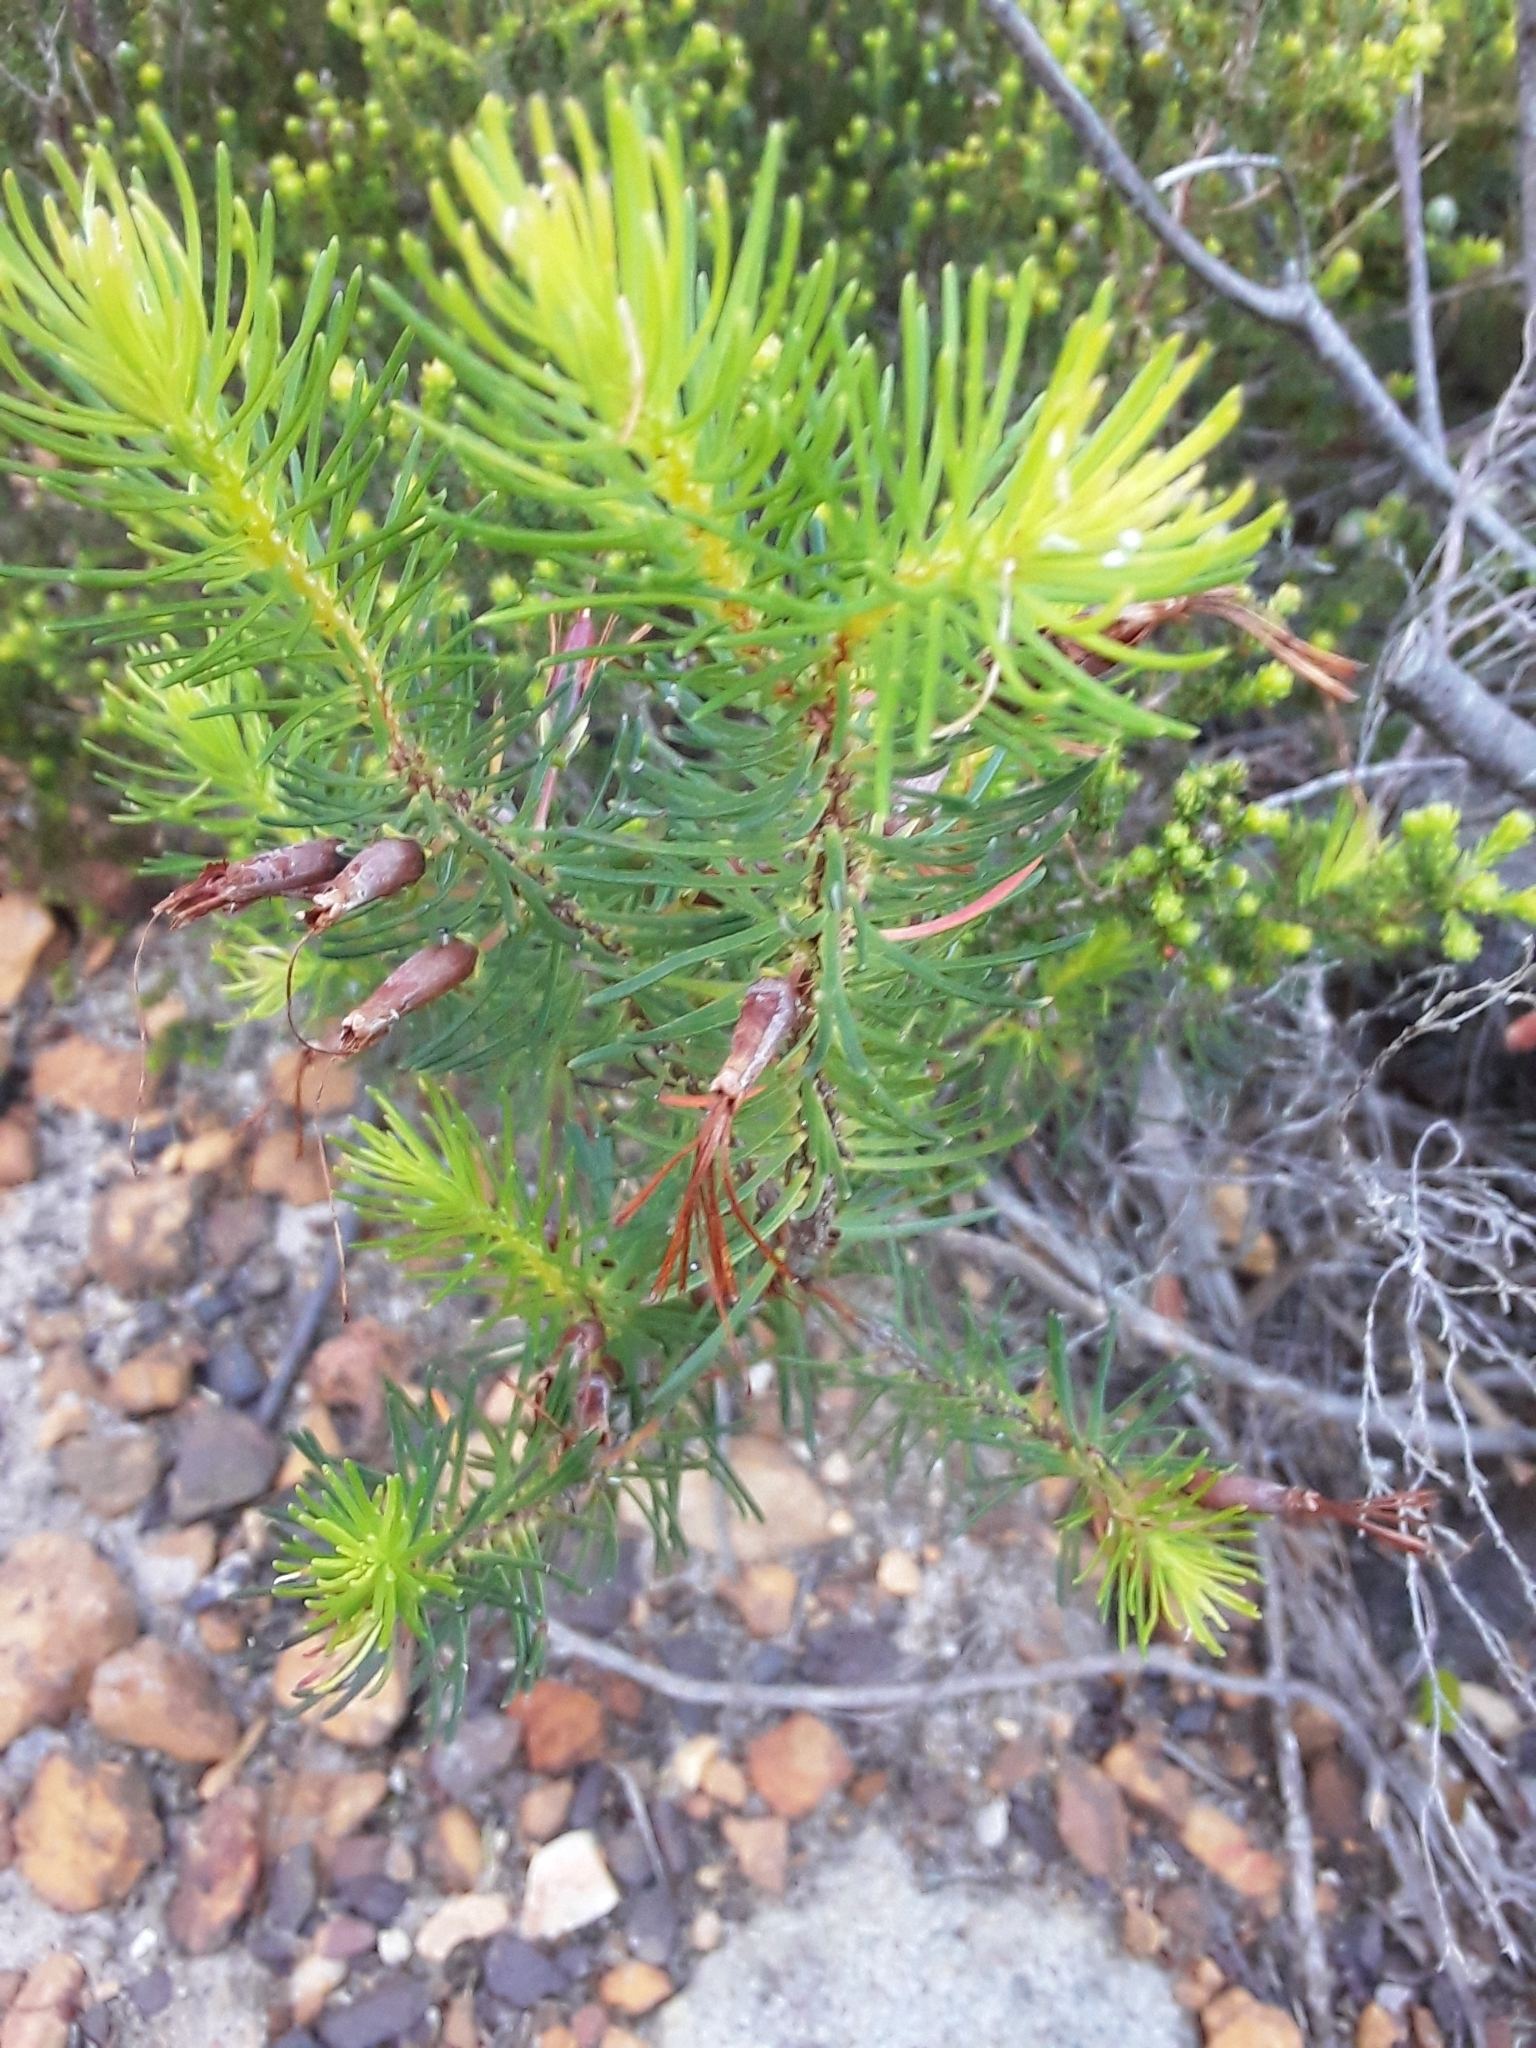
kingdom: Plantae
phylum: Tracheophyta
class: Magnoliopsida
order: Ericales
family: Ericaceae
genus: Erica
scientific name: Erica plukenetii
